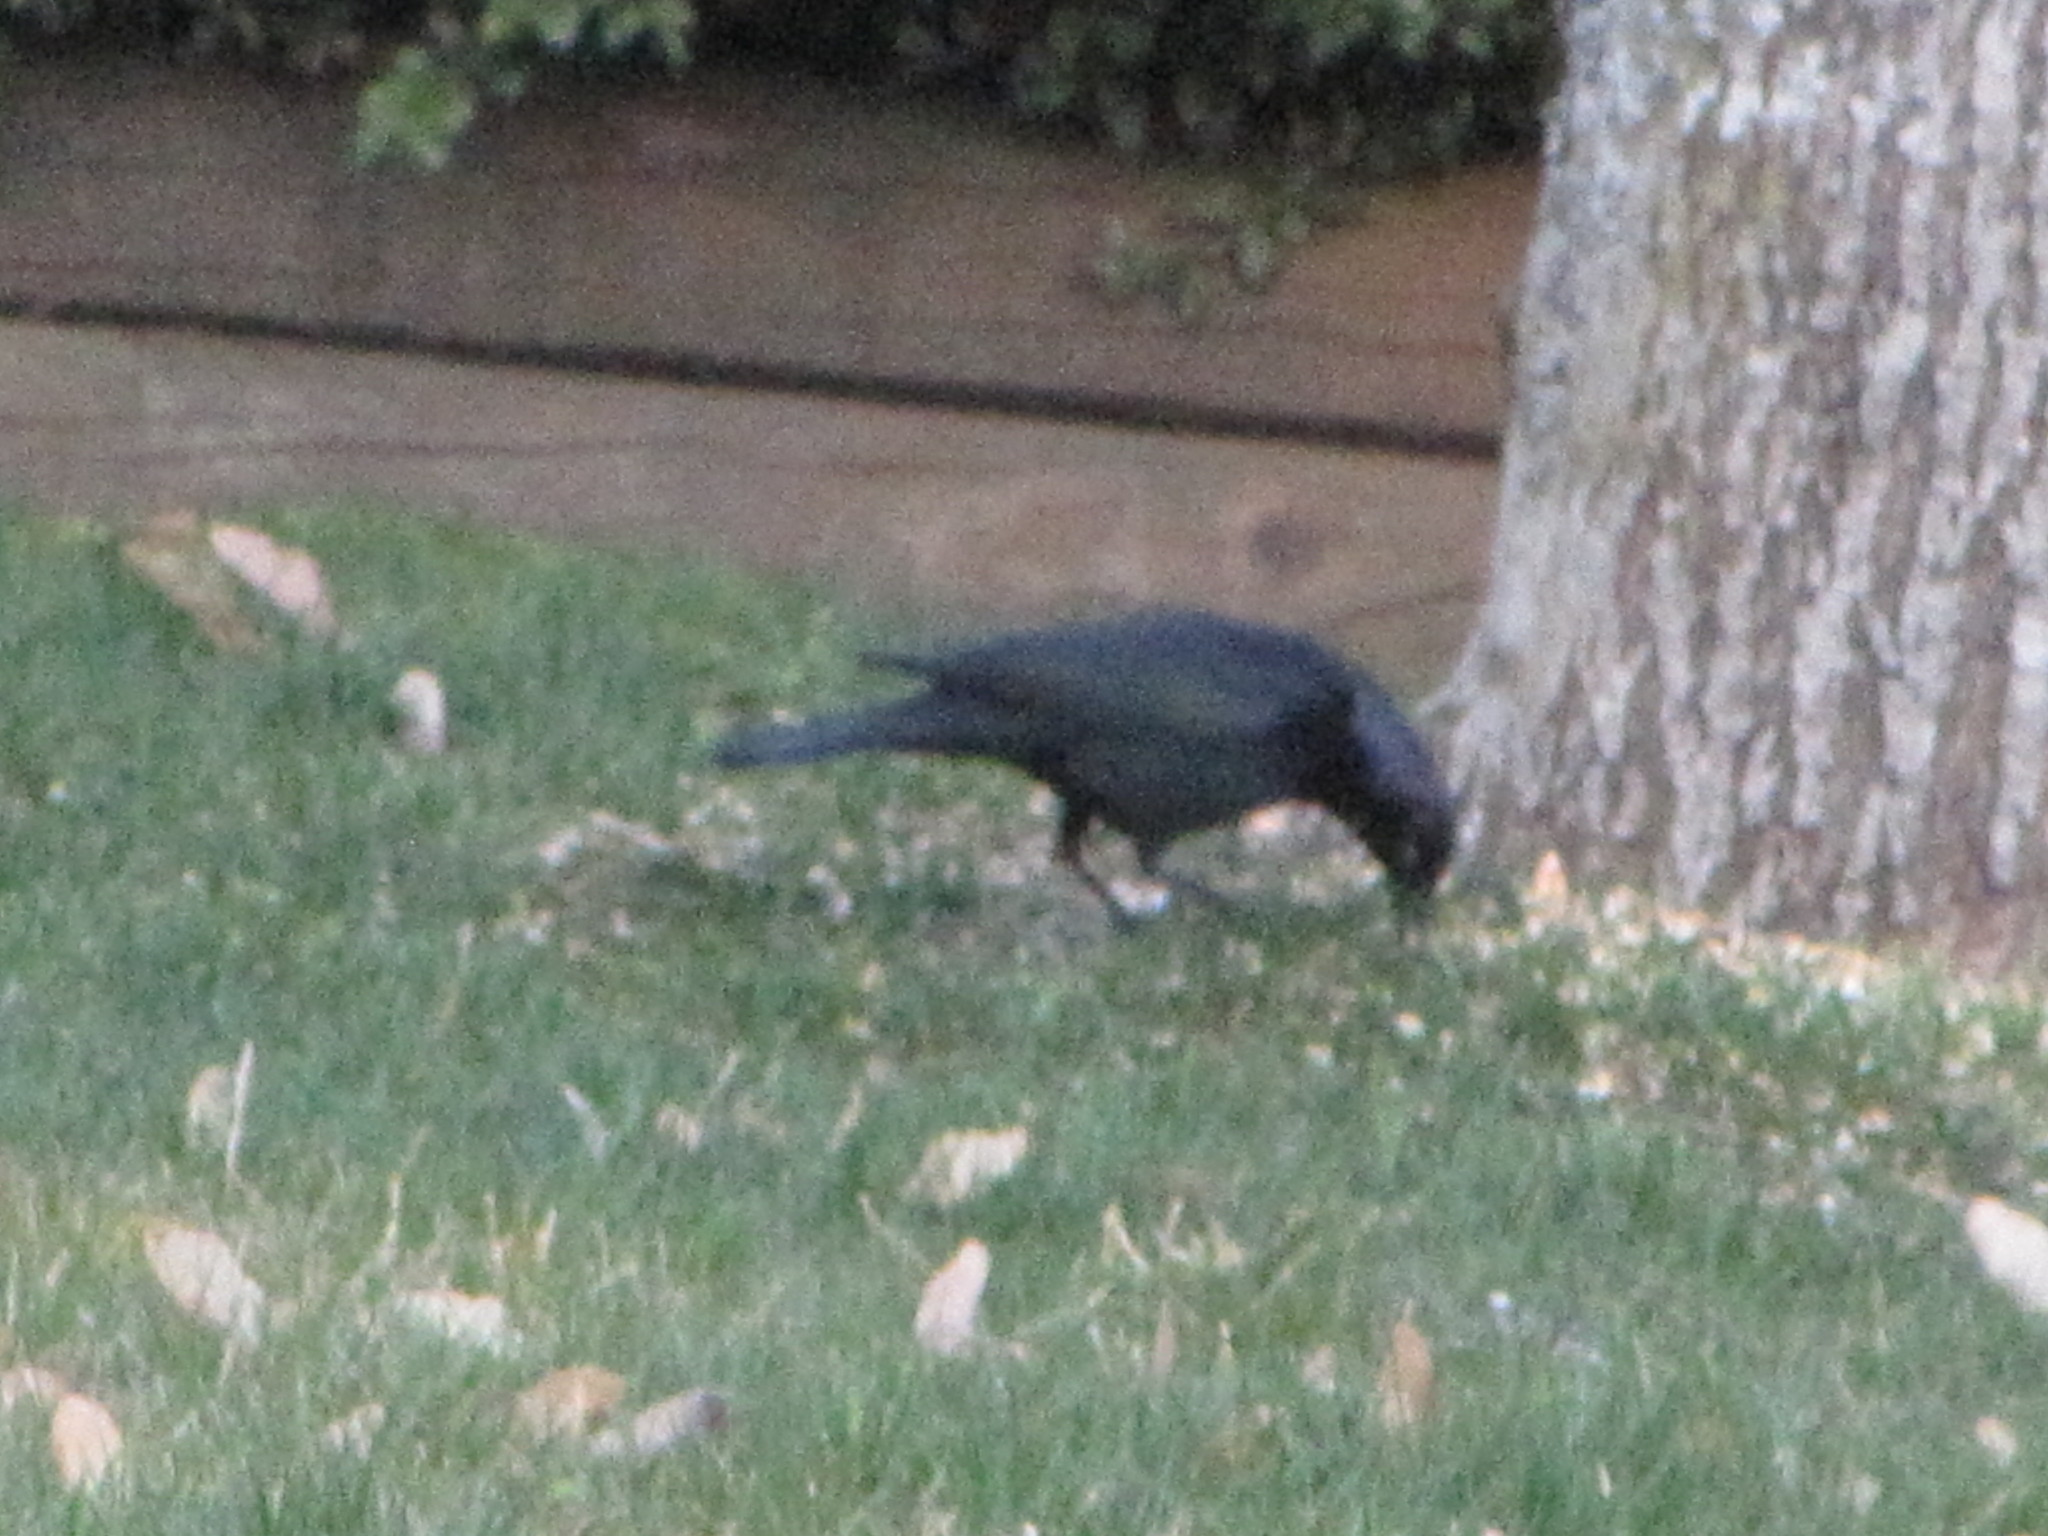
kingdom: Animalia
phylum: Chordata
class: Aves
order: Passeriformes
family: Icteridae
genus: Euphagus
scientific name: Euphagus cyanocephalus
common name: Brewer's blackbird
